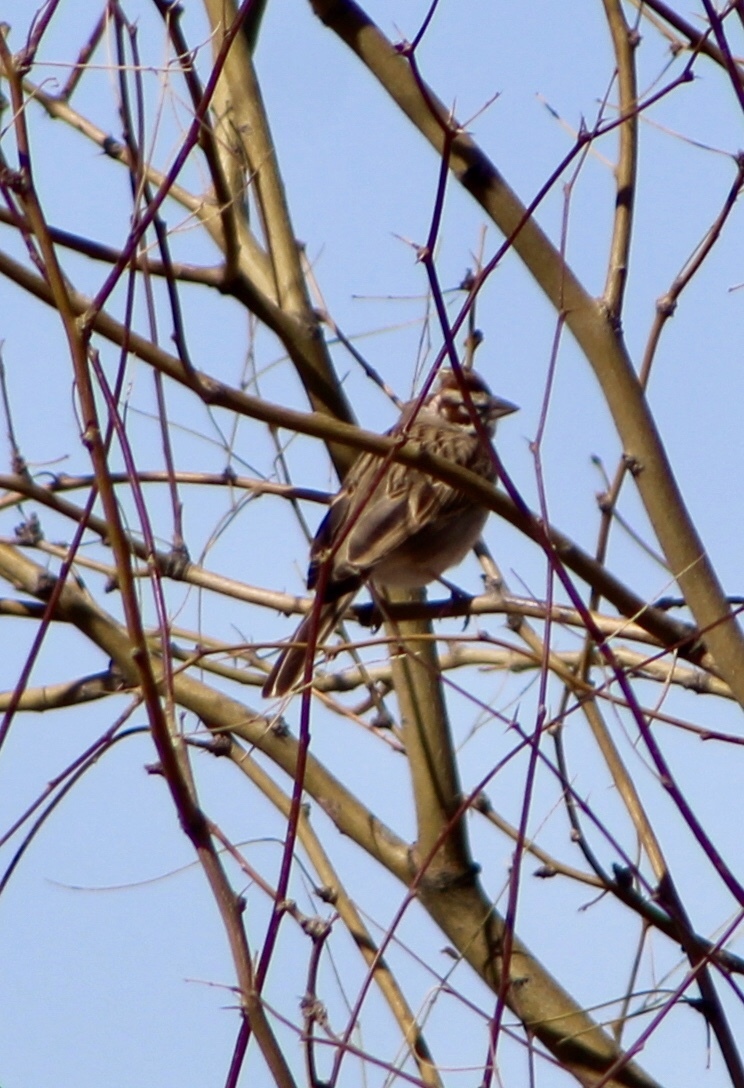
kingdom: Animalia
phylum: Chordata
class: Aves
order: Passeriformes
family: Passerellidae
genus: Chondestes
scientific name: Chondestes grammacus
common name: Lark sparrow
